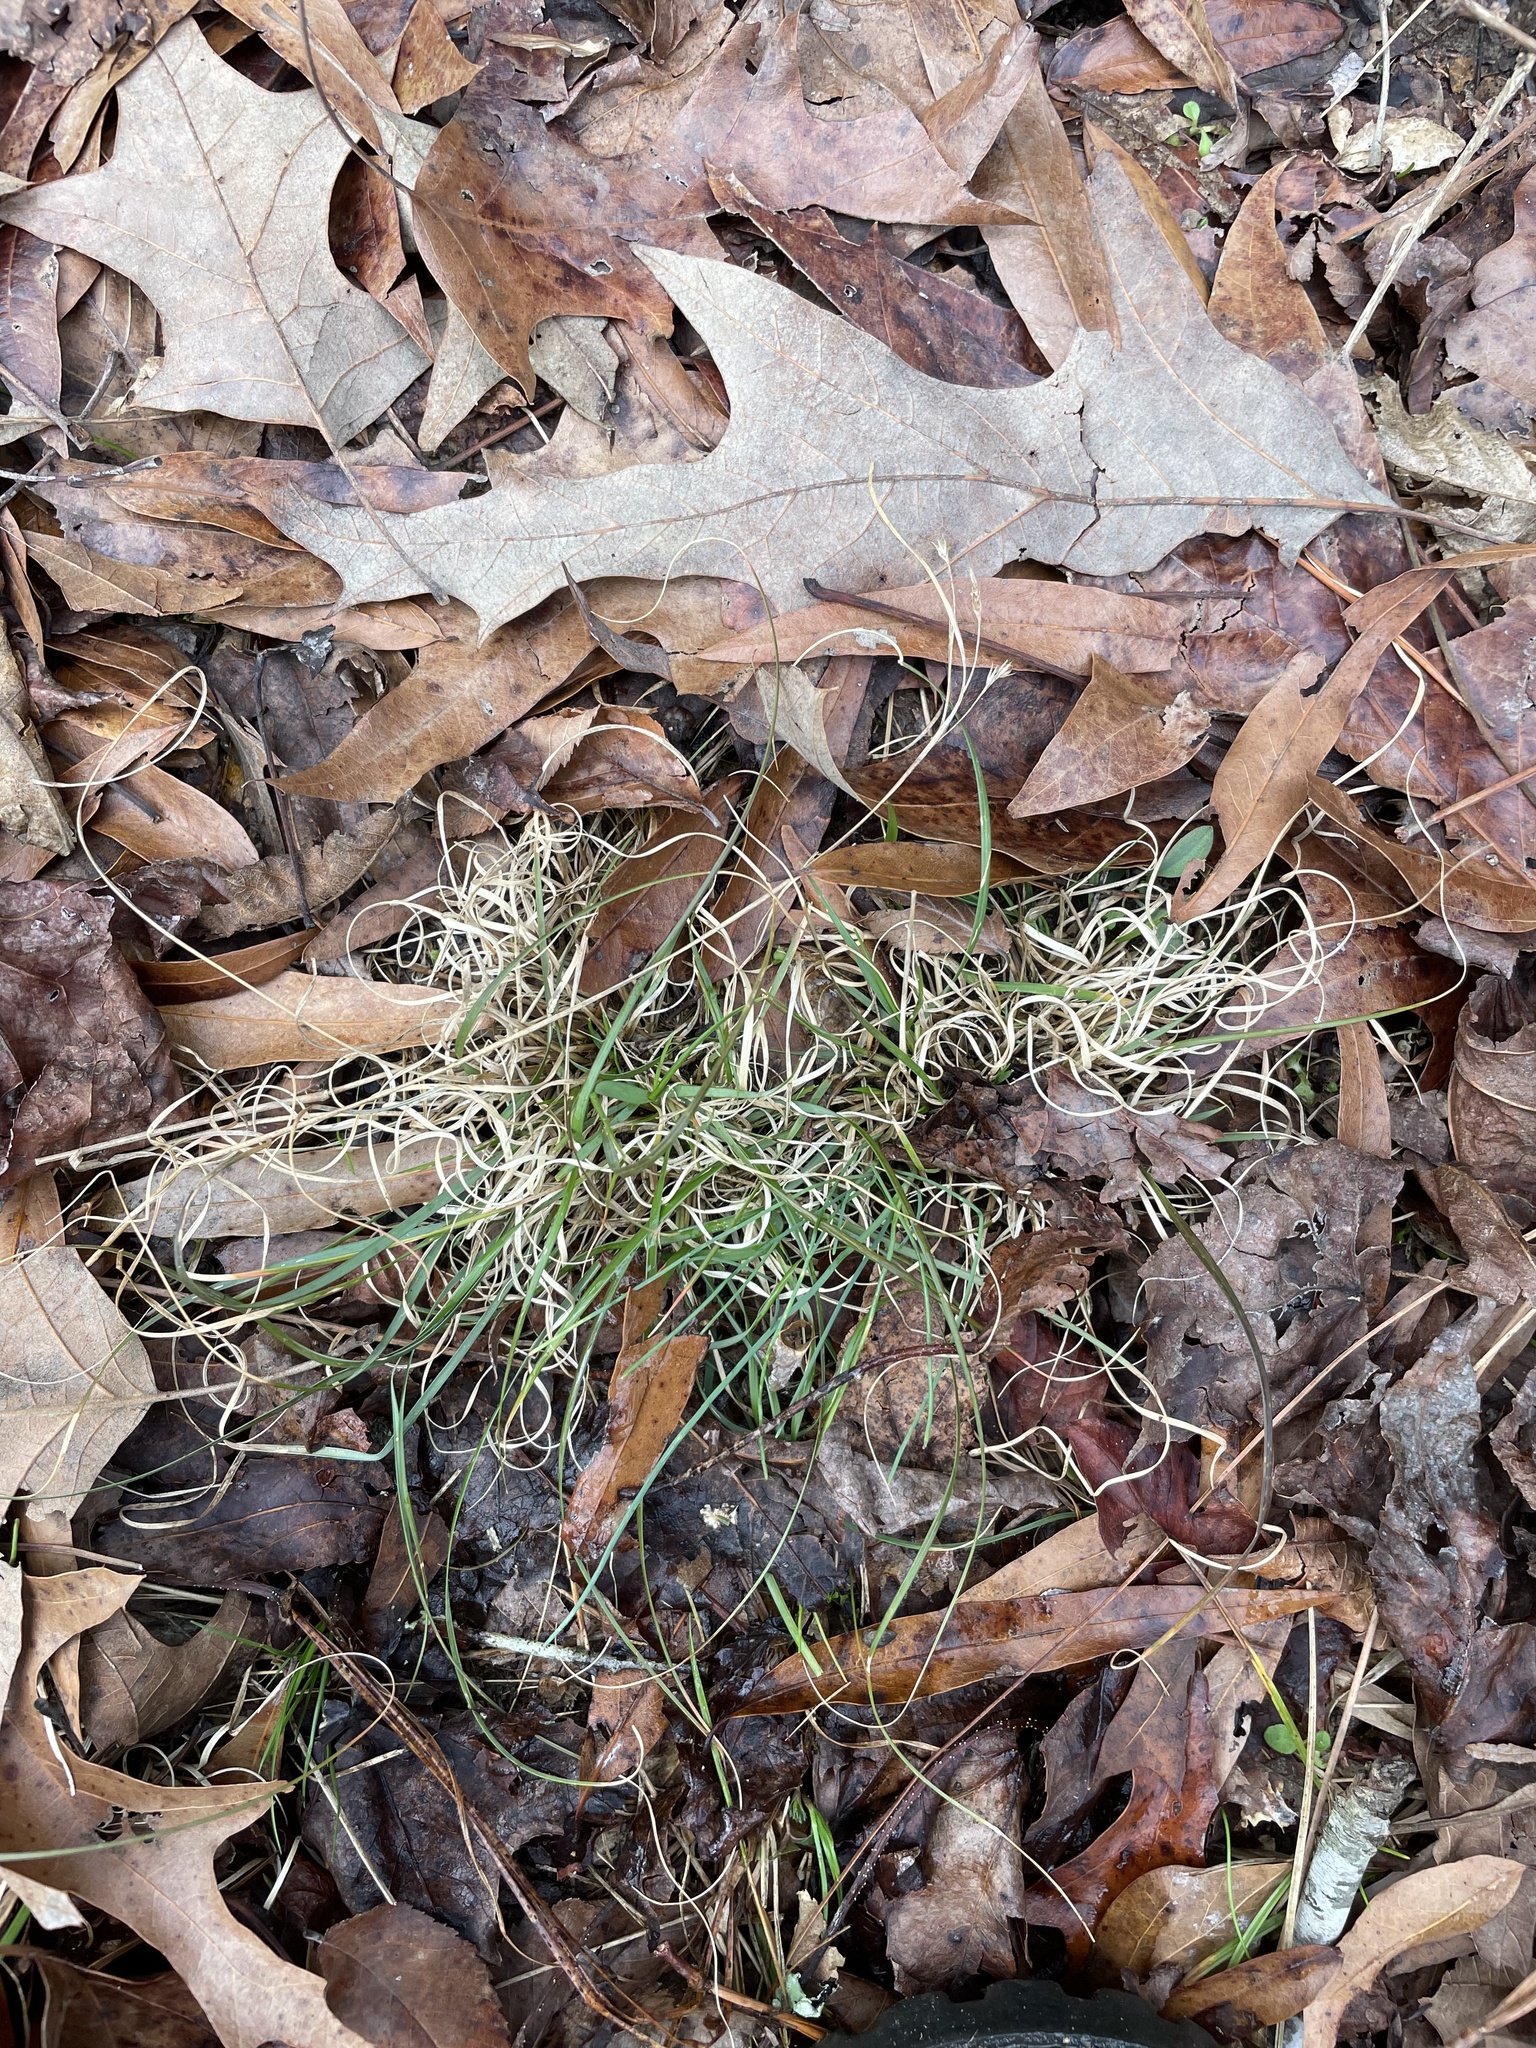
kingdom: Plantae
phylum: Tracheophyta
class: Liliopsida
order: Poales
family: Poaceae
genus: Danthonia
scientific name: Danthonia spicata
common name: Common wild oatgrass
